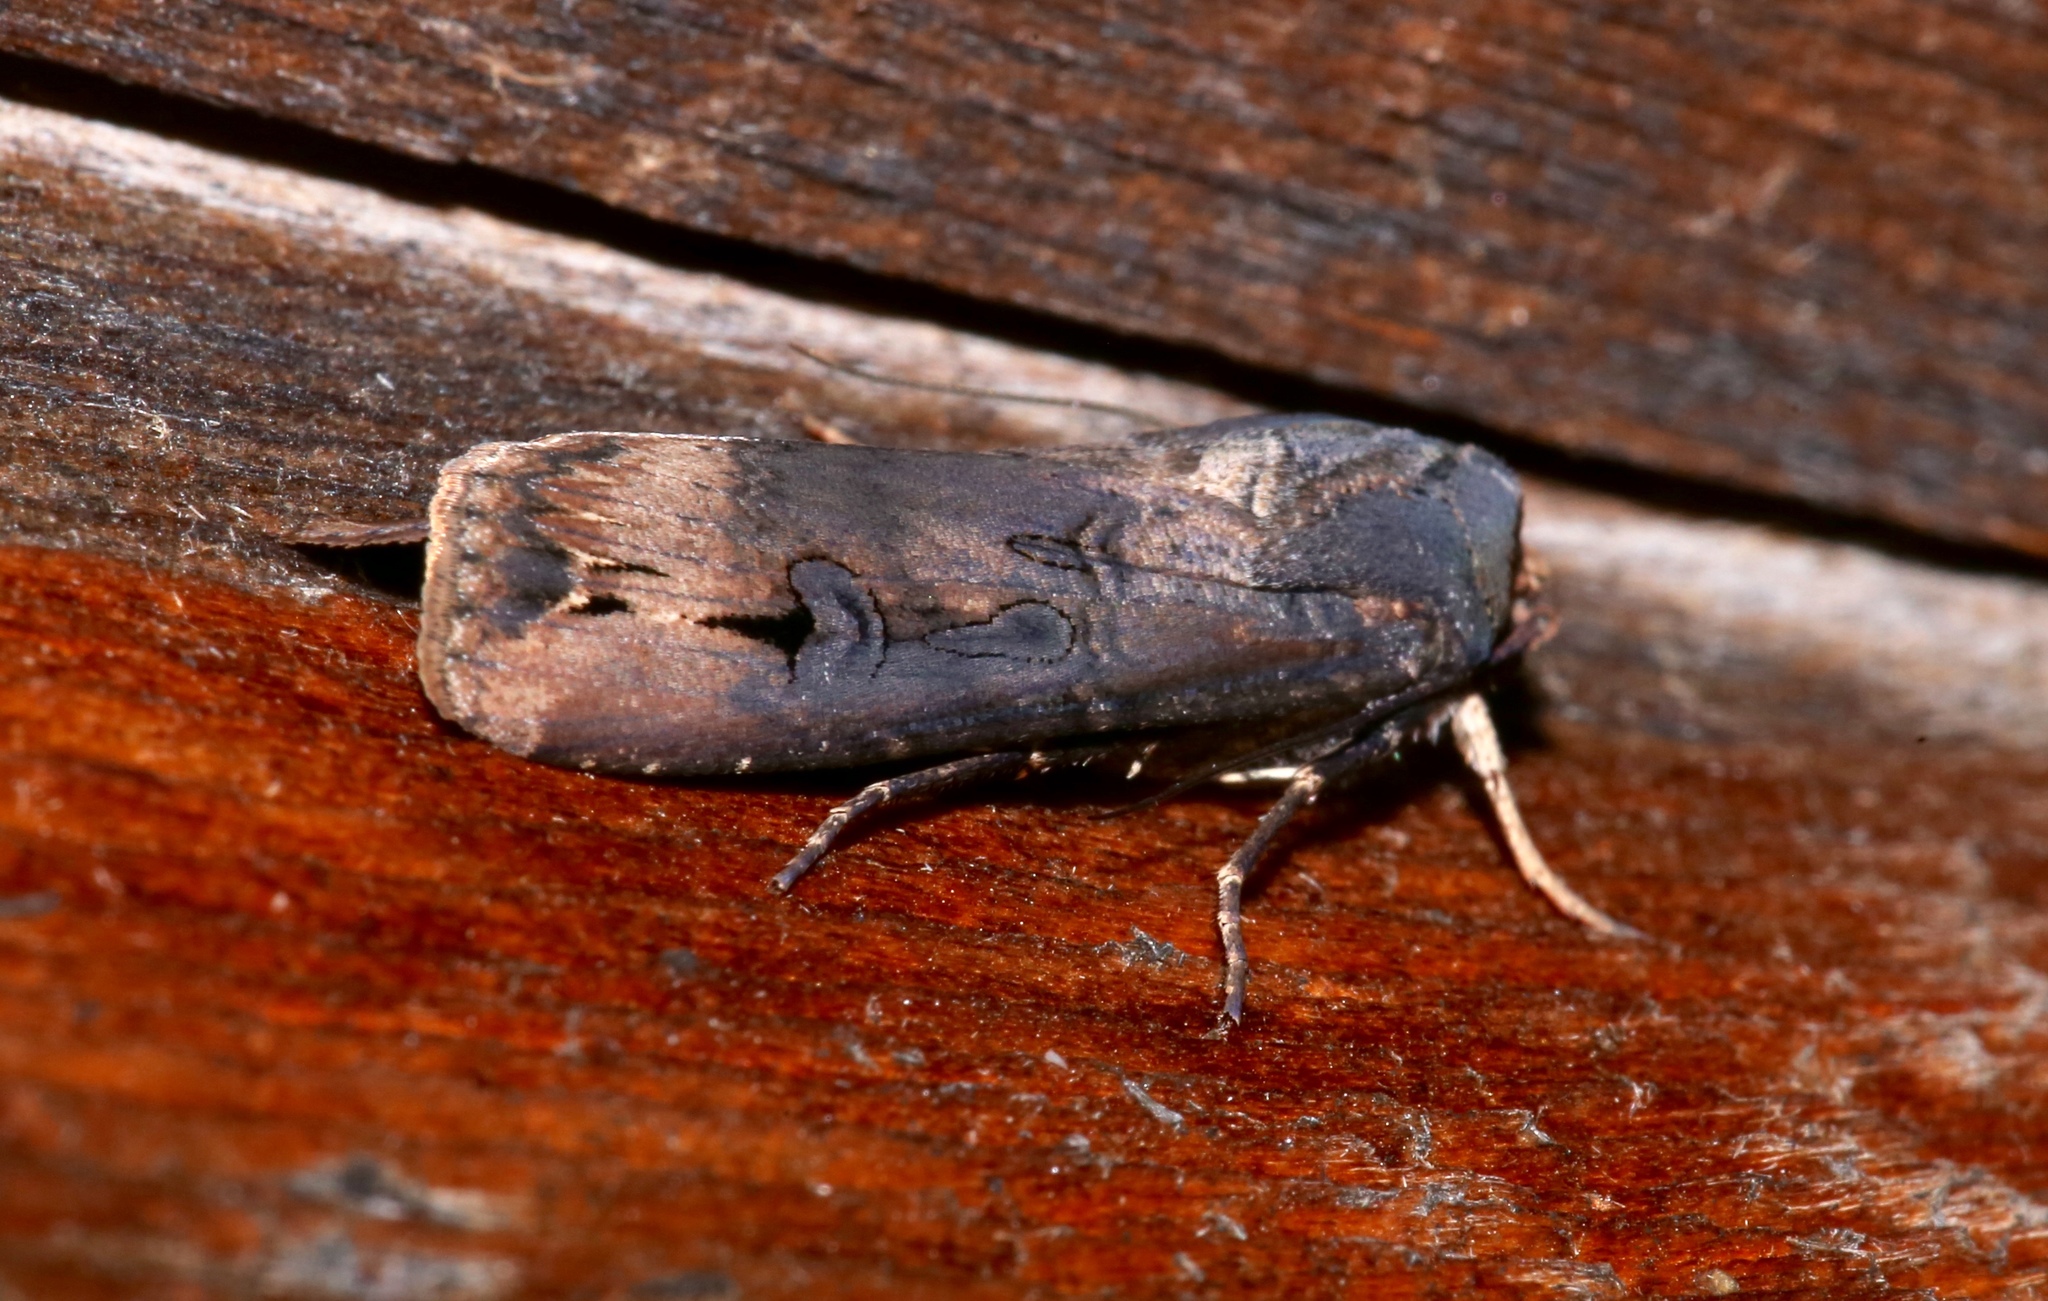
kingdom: Animalia
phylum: Arthropoda
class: Insecta
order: Lepidoptera
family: Noctuidae
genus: Agrotis
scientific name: Agrotis ipsilon
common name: Dark sword-grass
